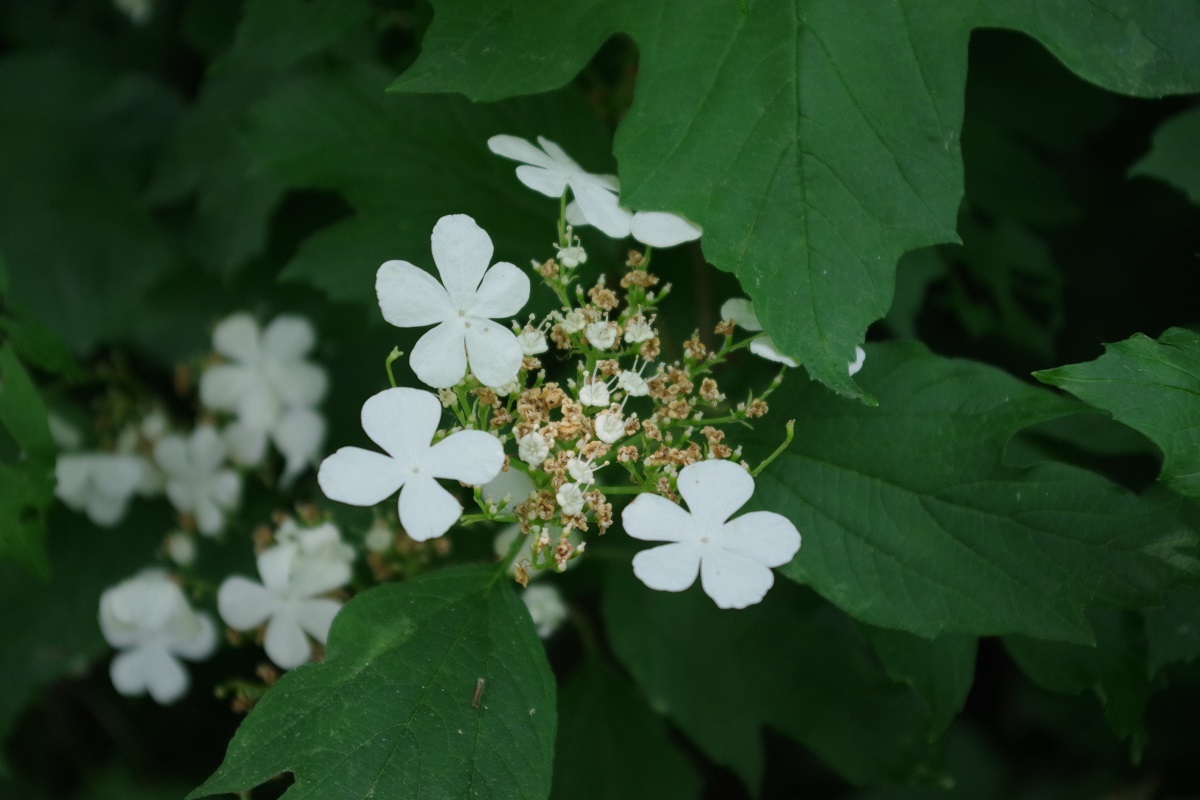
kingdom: Plantae
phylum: Tracheophyta
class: Magnoliopsida
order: Dipsacales
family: Viburnaceae
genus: Viburnum
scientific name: Viburnum opulus
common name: Guelder-rose
